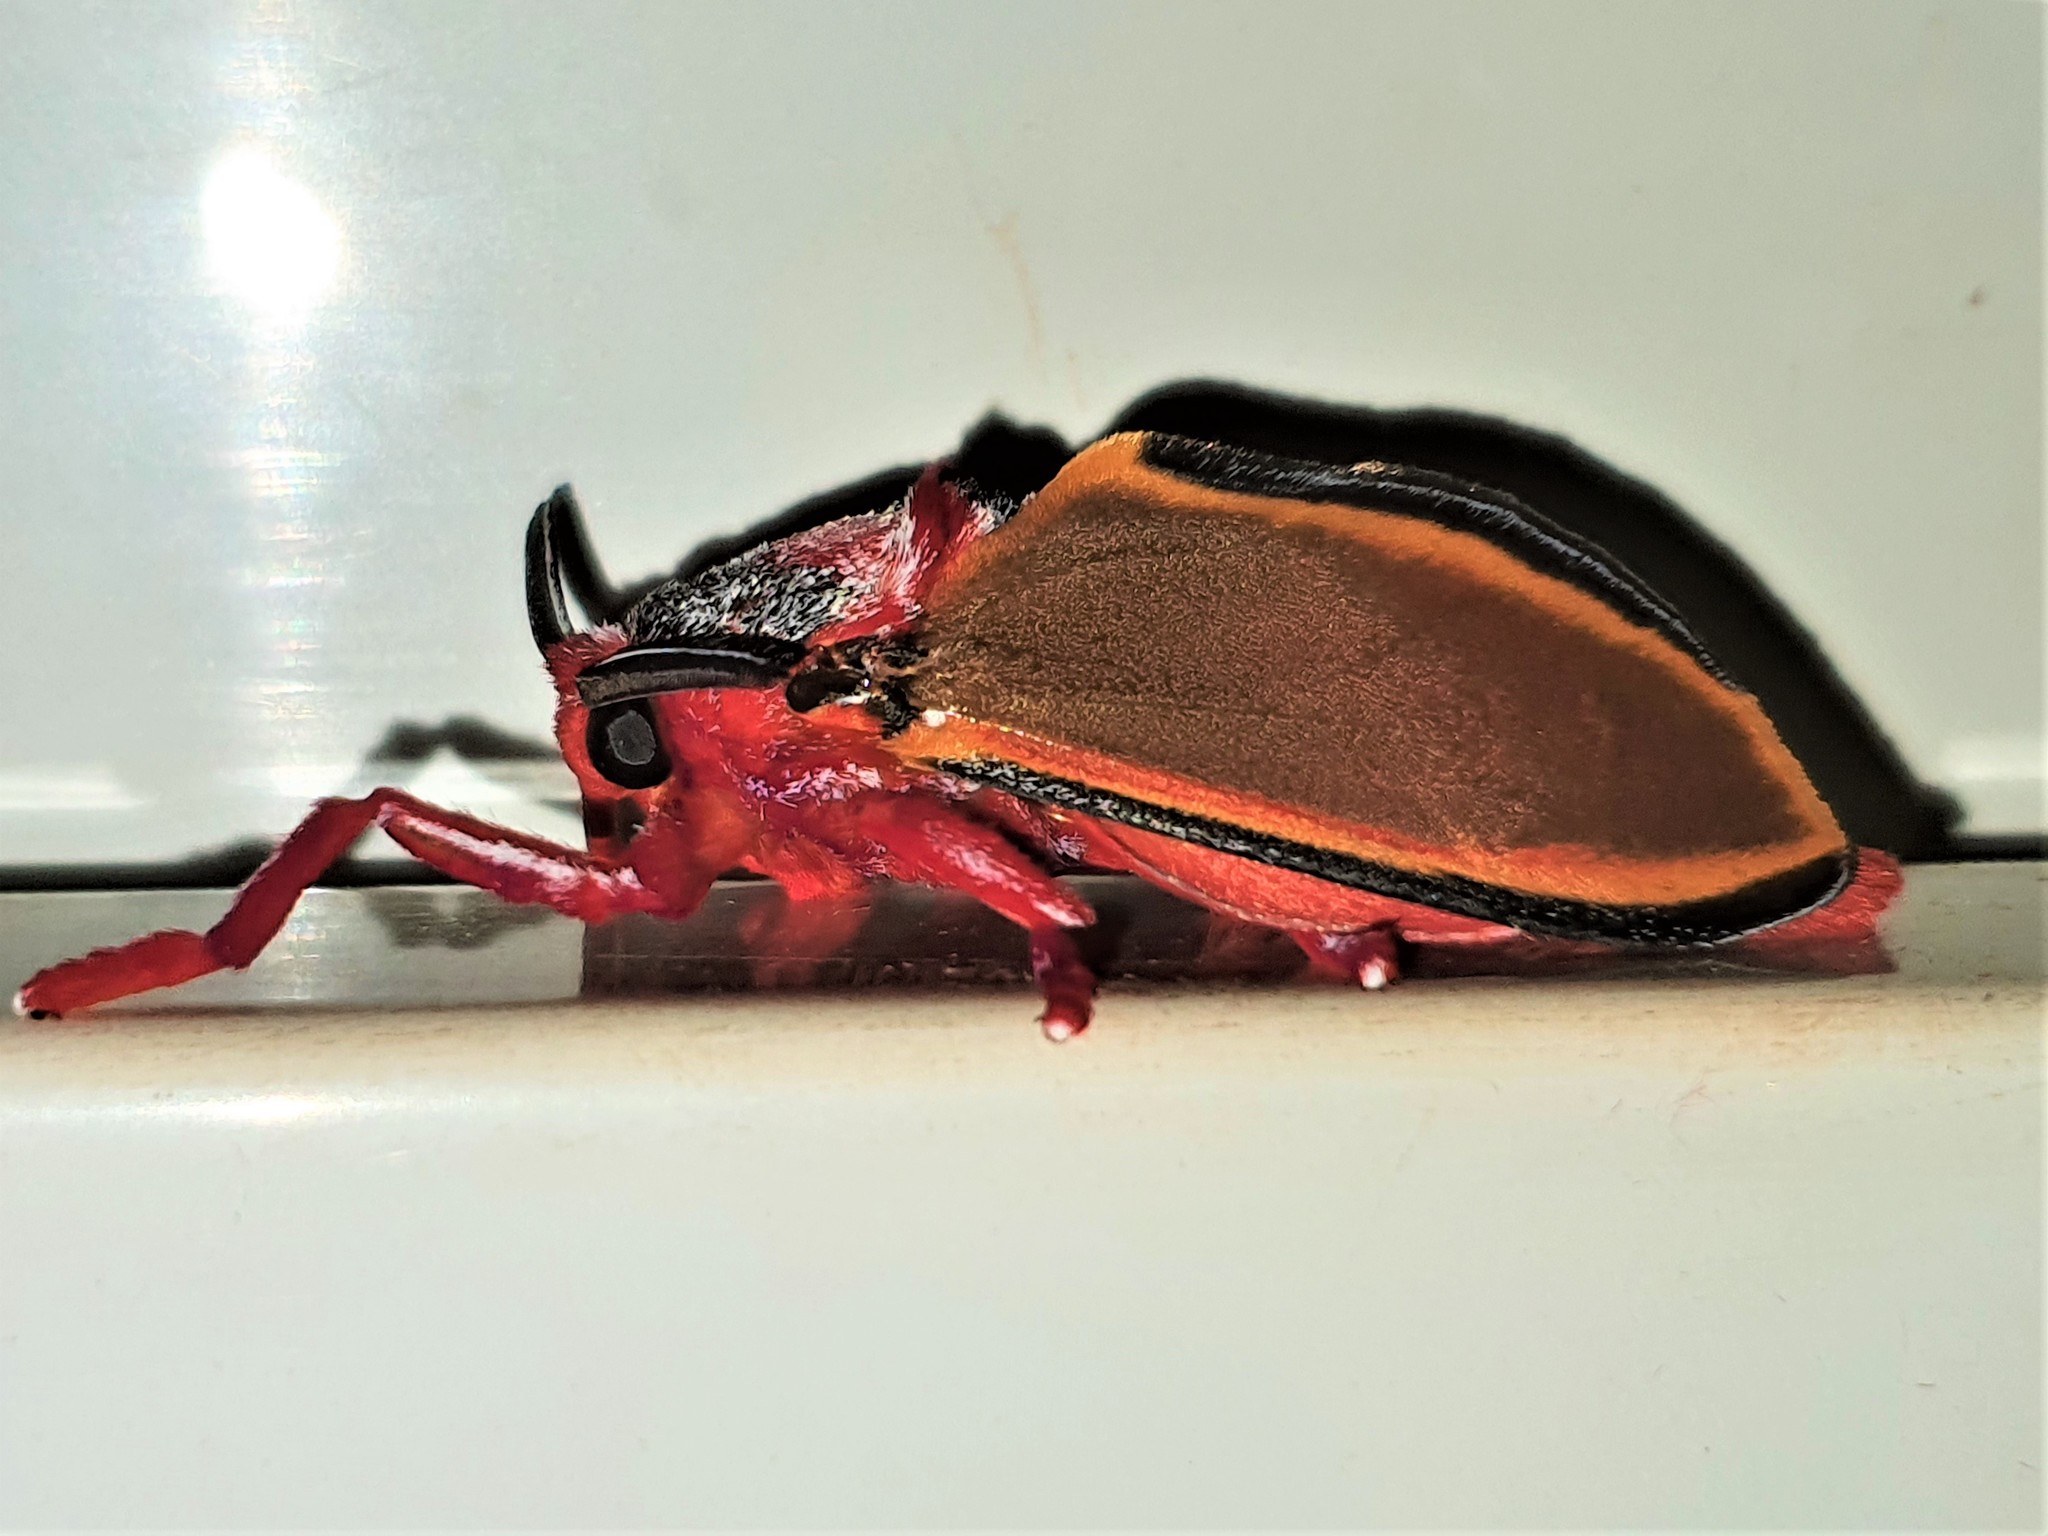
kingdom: Animalia
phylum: Arthropoda
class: Insecta
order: Lepidoptera
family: Megalopygidae
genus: Edebessa
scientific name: Edebessa purens
